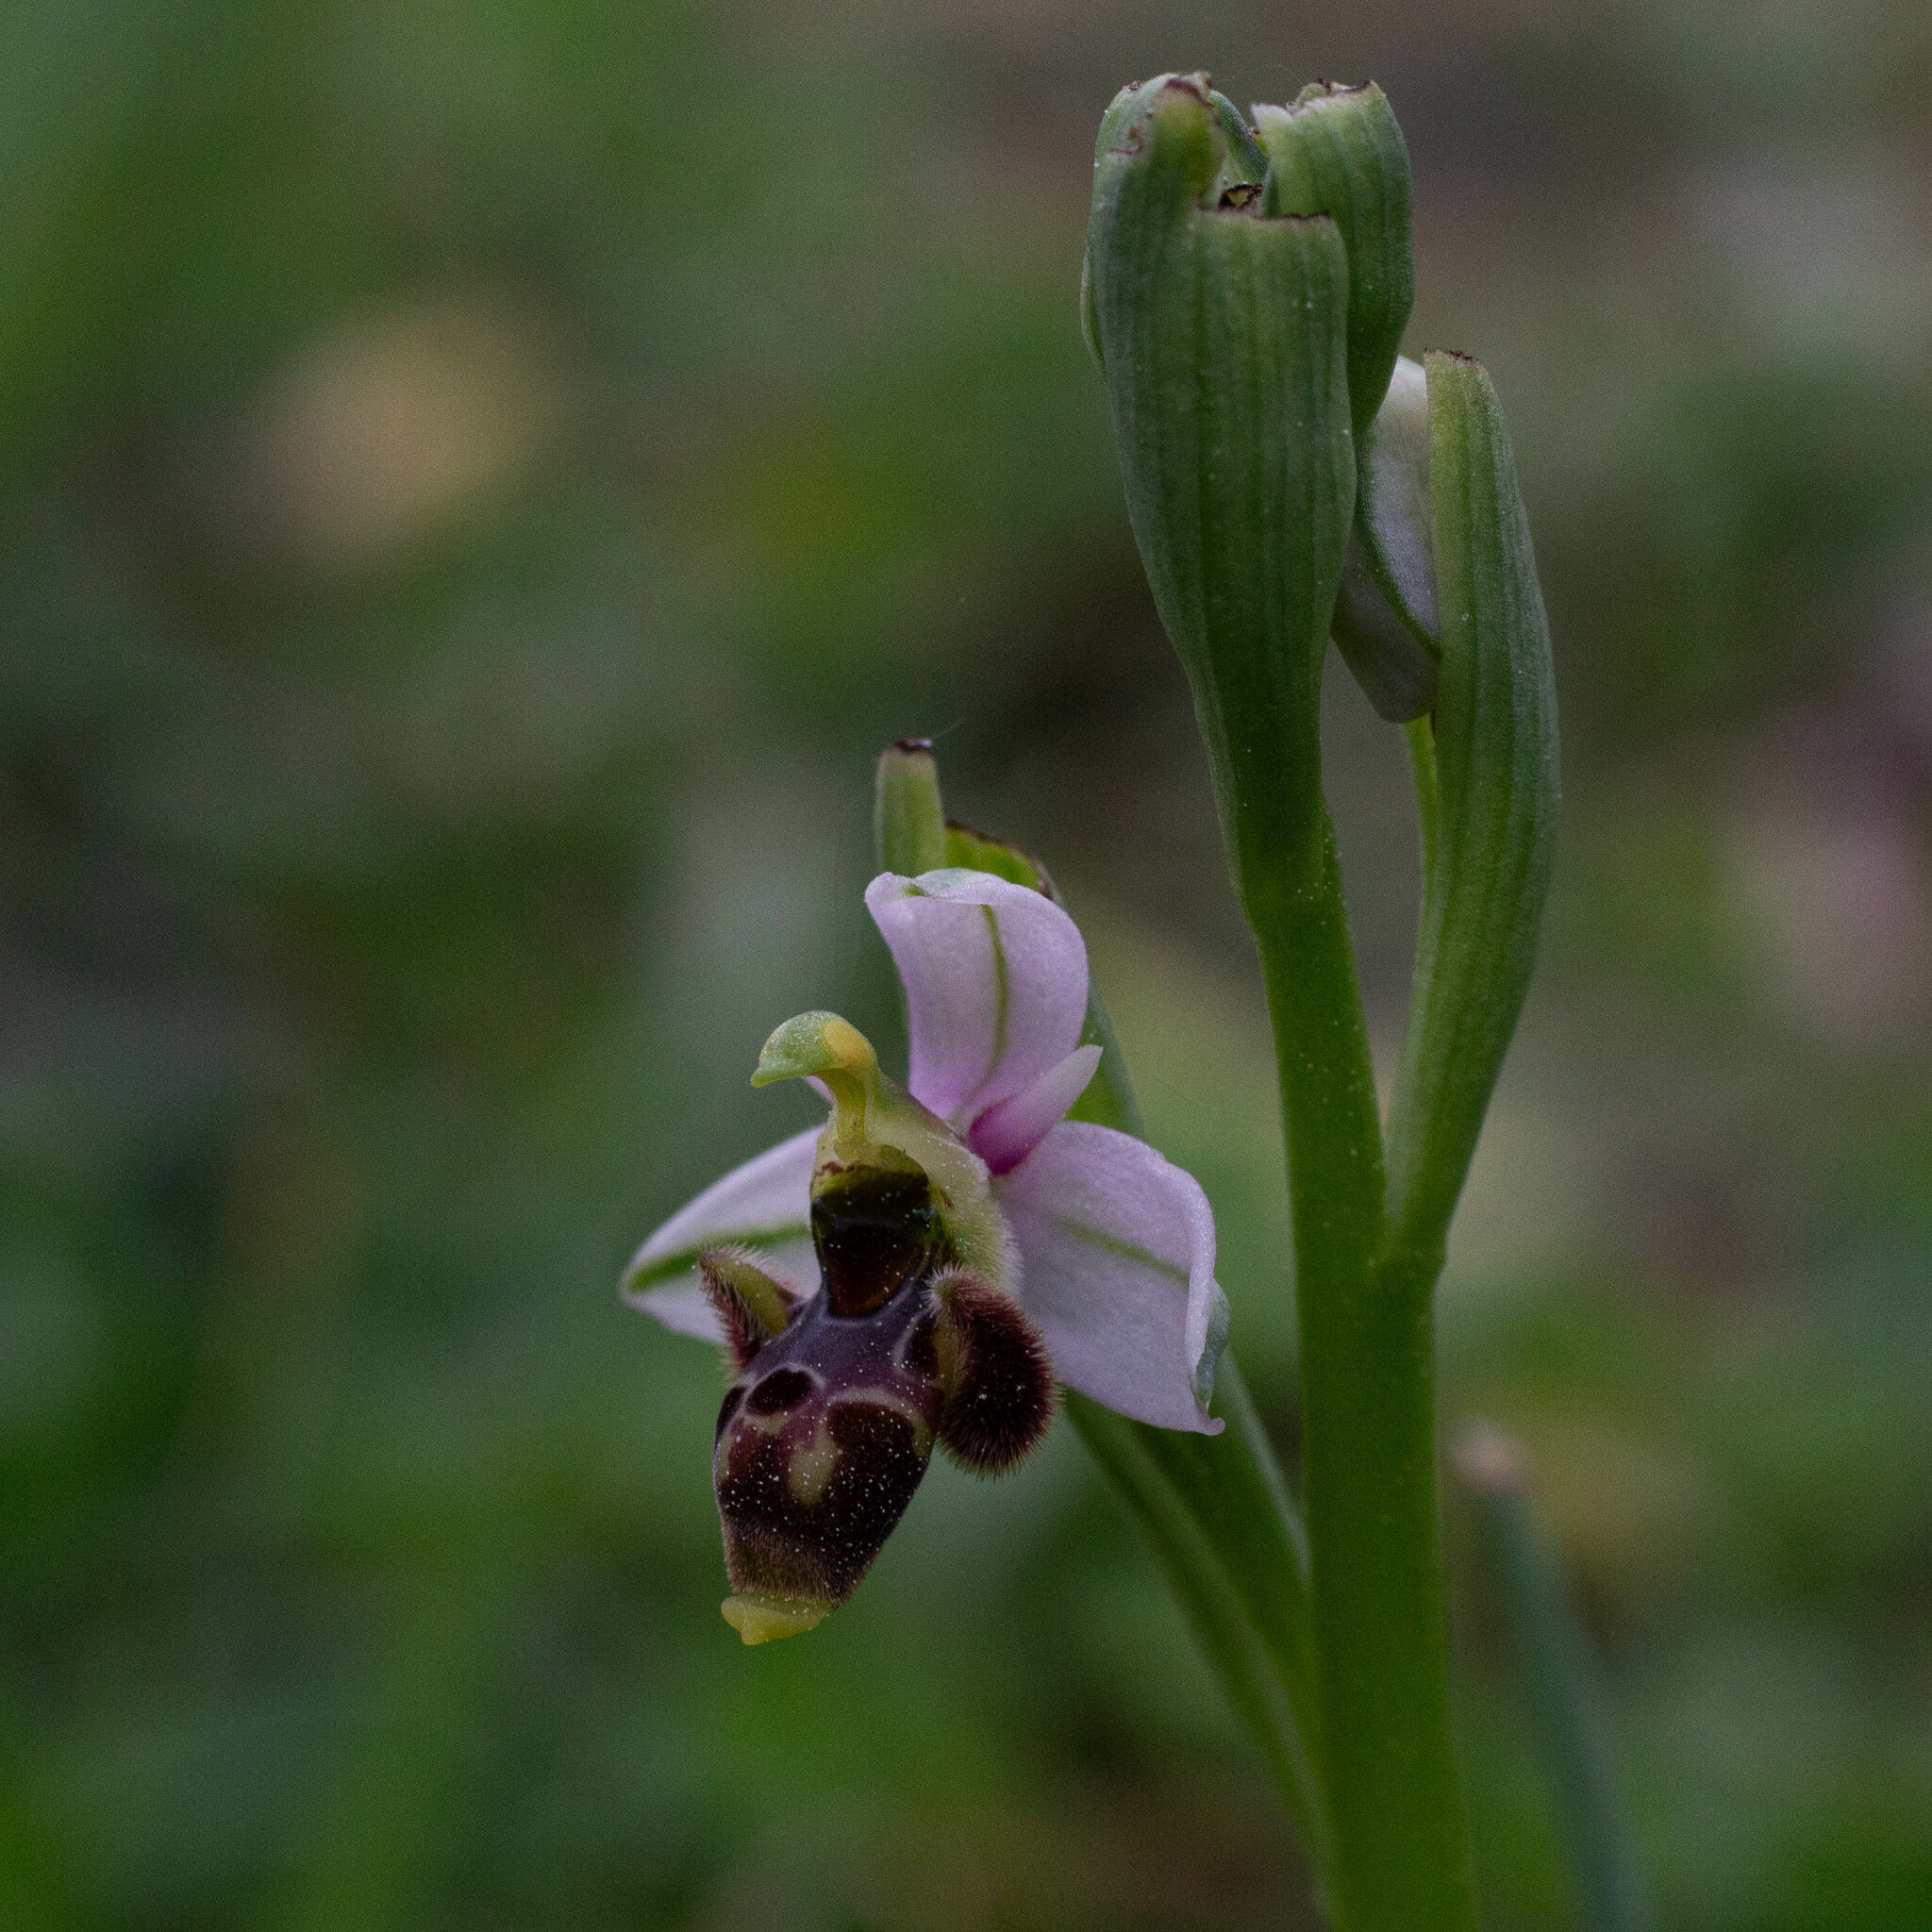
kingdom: Plantae
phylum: Tracheophyta
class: Liliopsida
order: Asparagales
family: Orchidaceae
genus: Ophrys
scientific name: Ophrys scolopax
